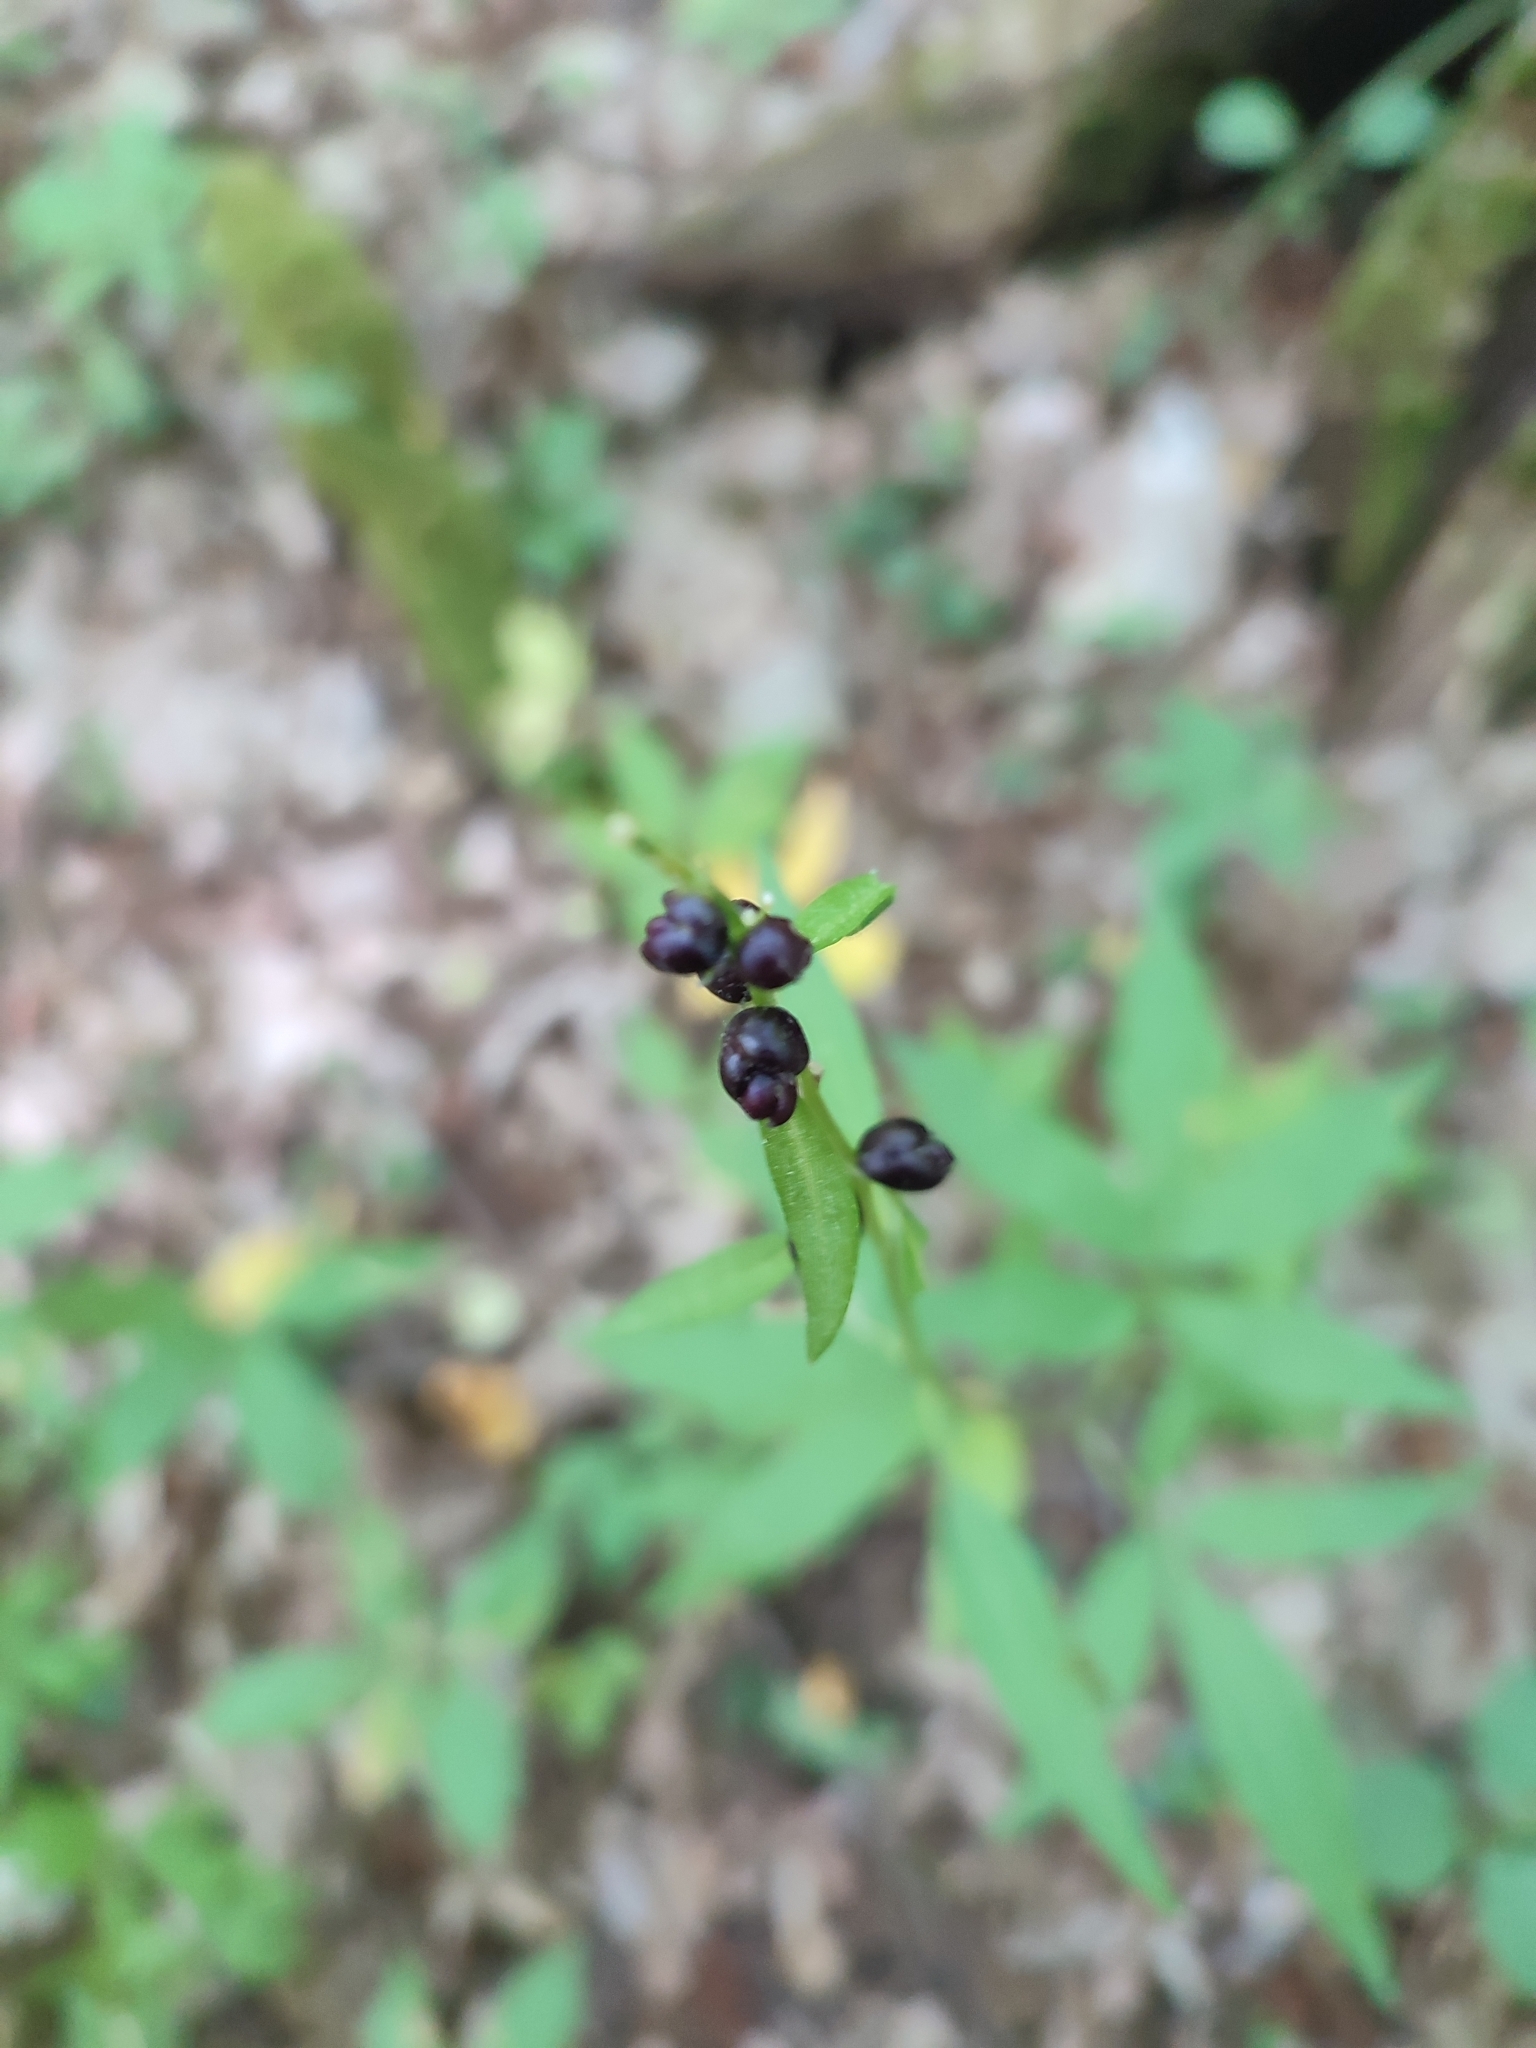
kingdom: Plantae
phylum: Tracheophyta
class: Magnoliopsida
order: Brassicales
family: Brassicaceae
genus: Cardamine
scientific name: Cardamine bulbifera
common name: Coralroot bittercress
